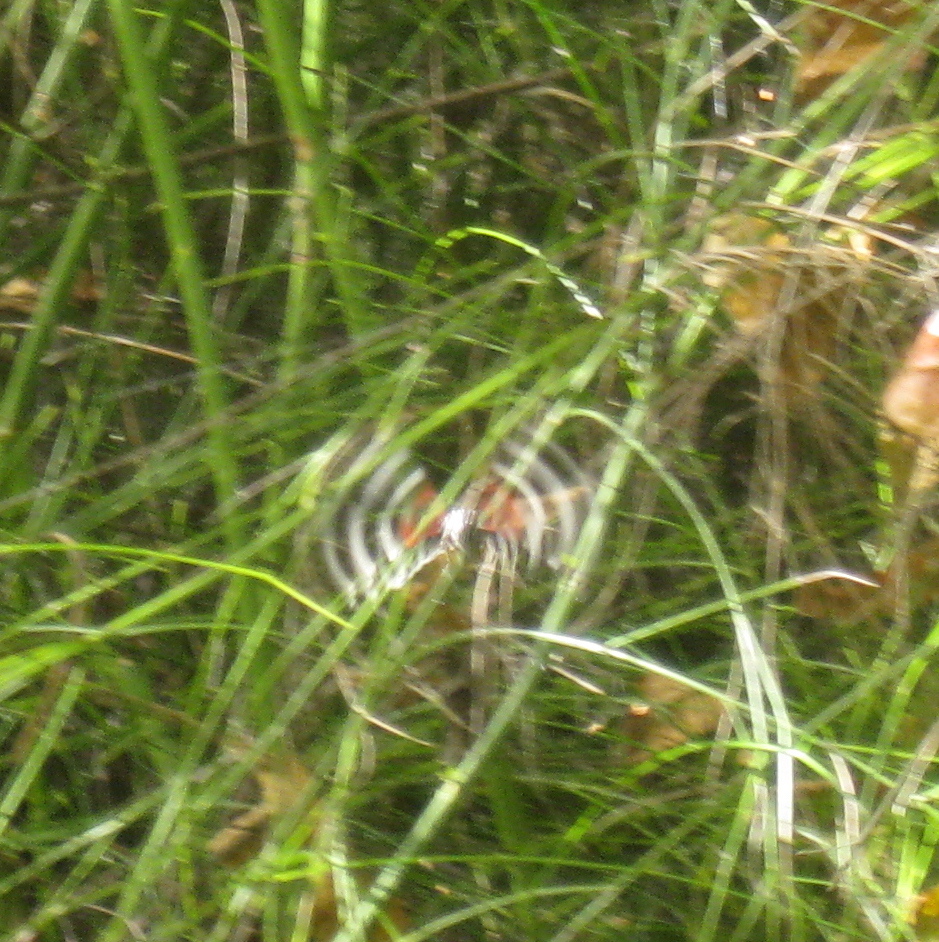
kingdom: Animalia
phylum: Arthropoda
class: Insecta
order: Lepidoptera
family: Erebidae
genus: Composia
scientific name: Composia fidelissima
